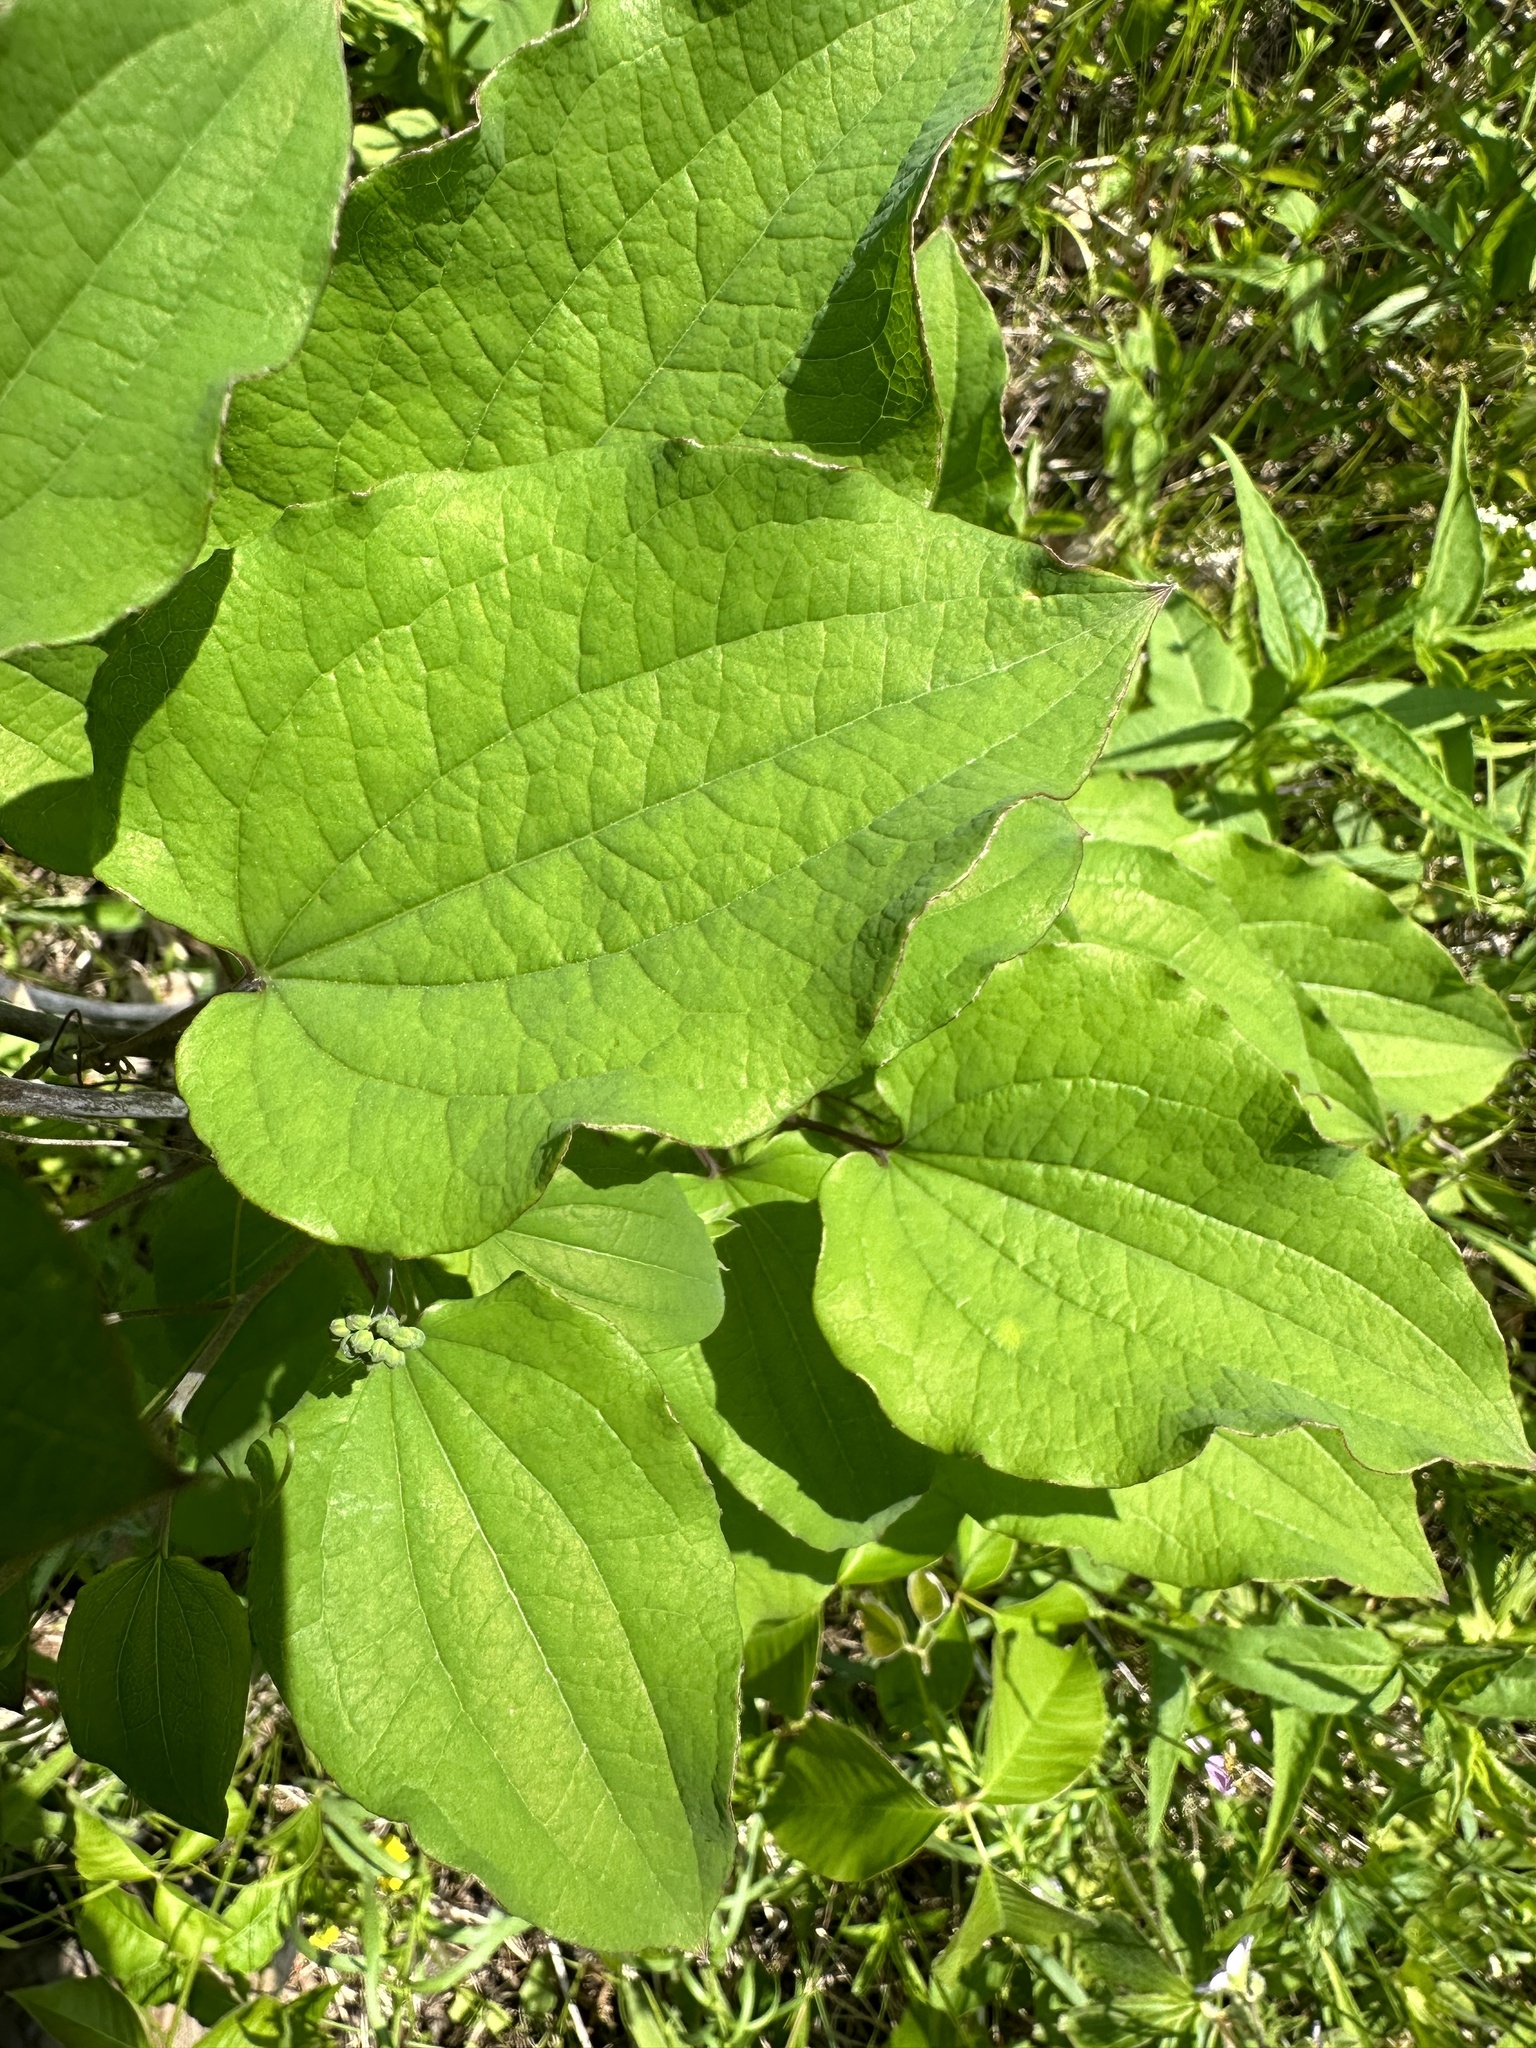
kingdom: Plantae
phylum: Tracheophyta
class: Liliopsida
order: Liliales
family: Smilacaceae
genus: Smilax
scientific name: Smilax herbacea
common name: Jacob's-ladder
